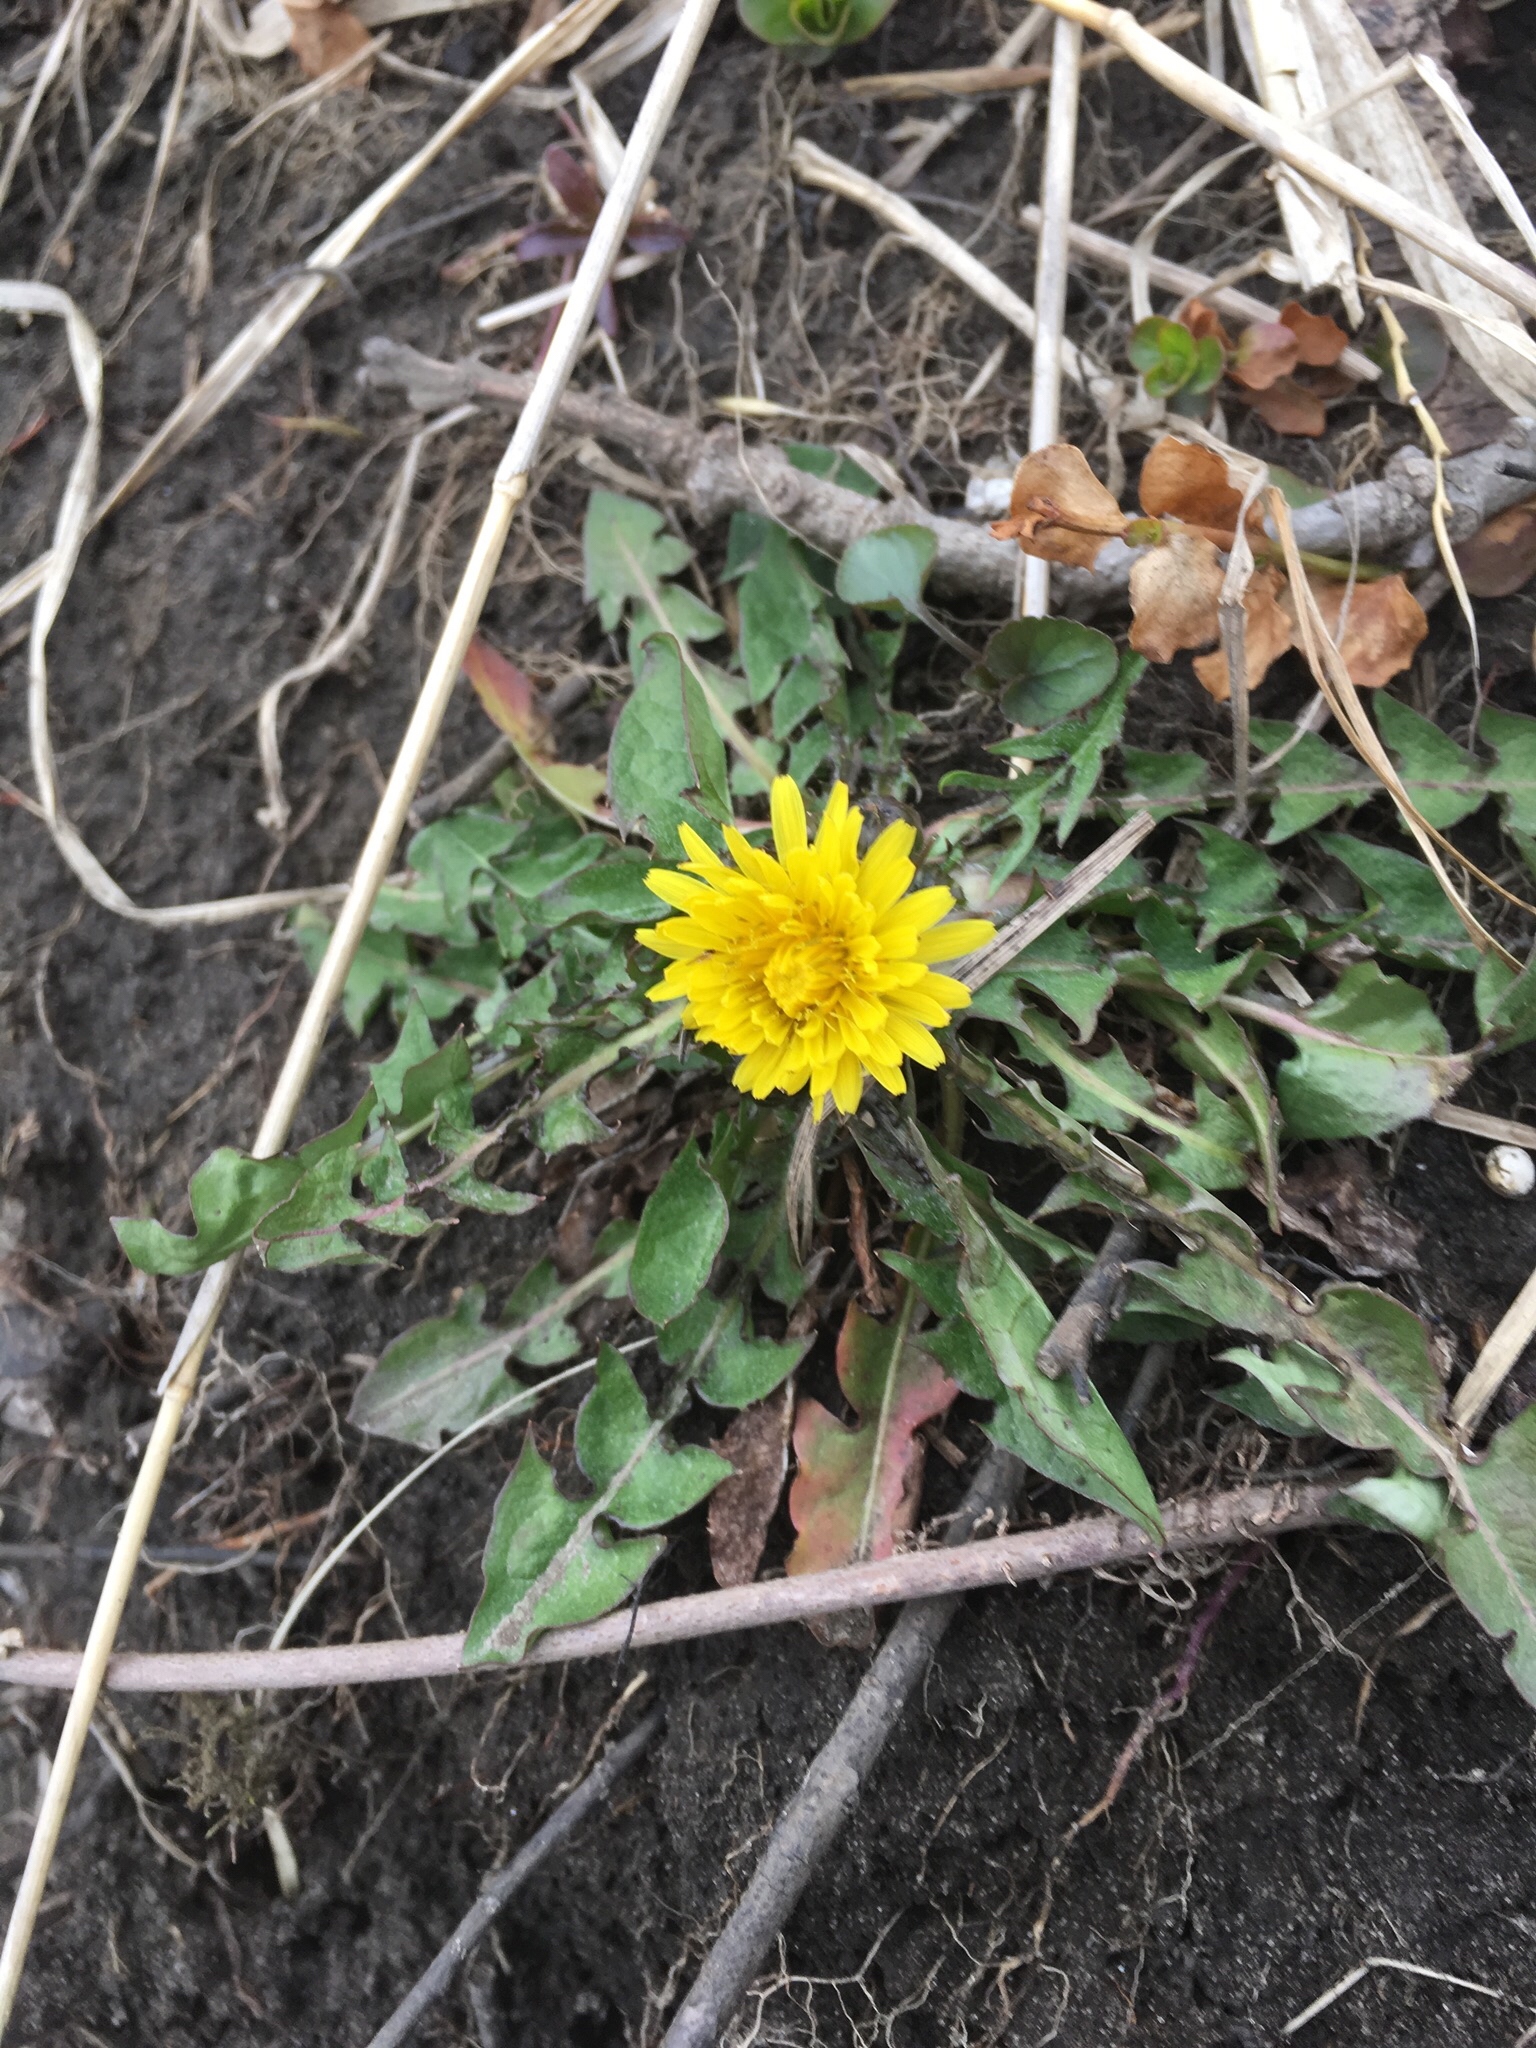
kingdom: Plantae
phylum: Tracheophyta
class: Magnoliopsida
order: Asterales
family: Asteraceae
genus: Taraxacum
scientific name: Taraxacum officinale
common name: Common dandelion
